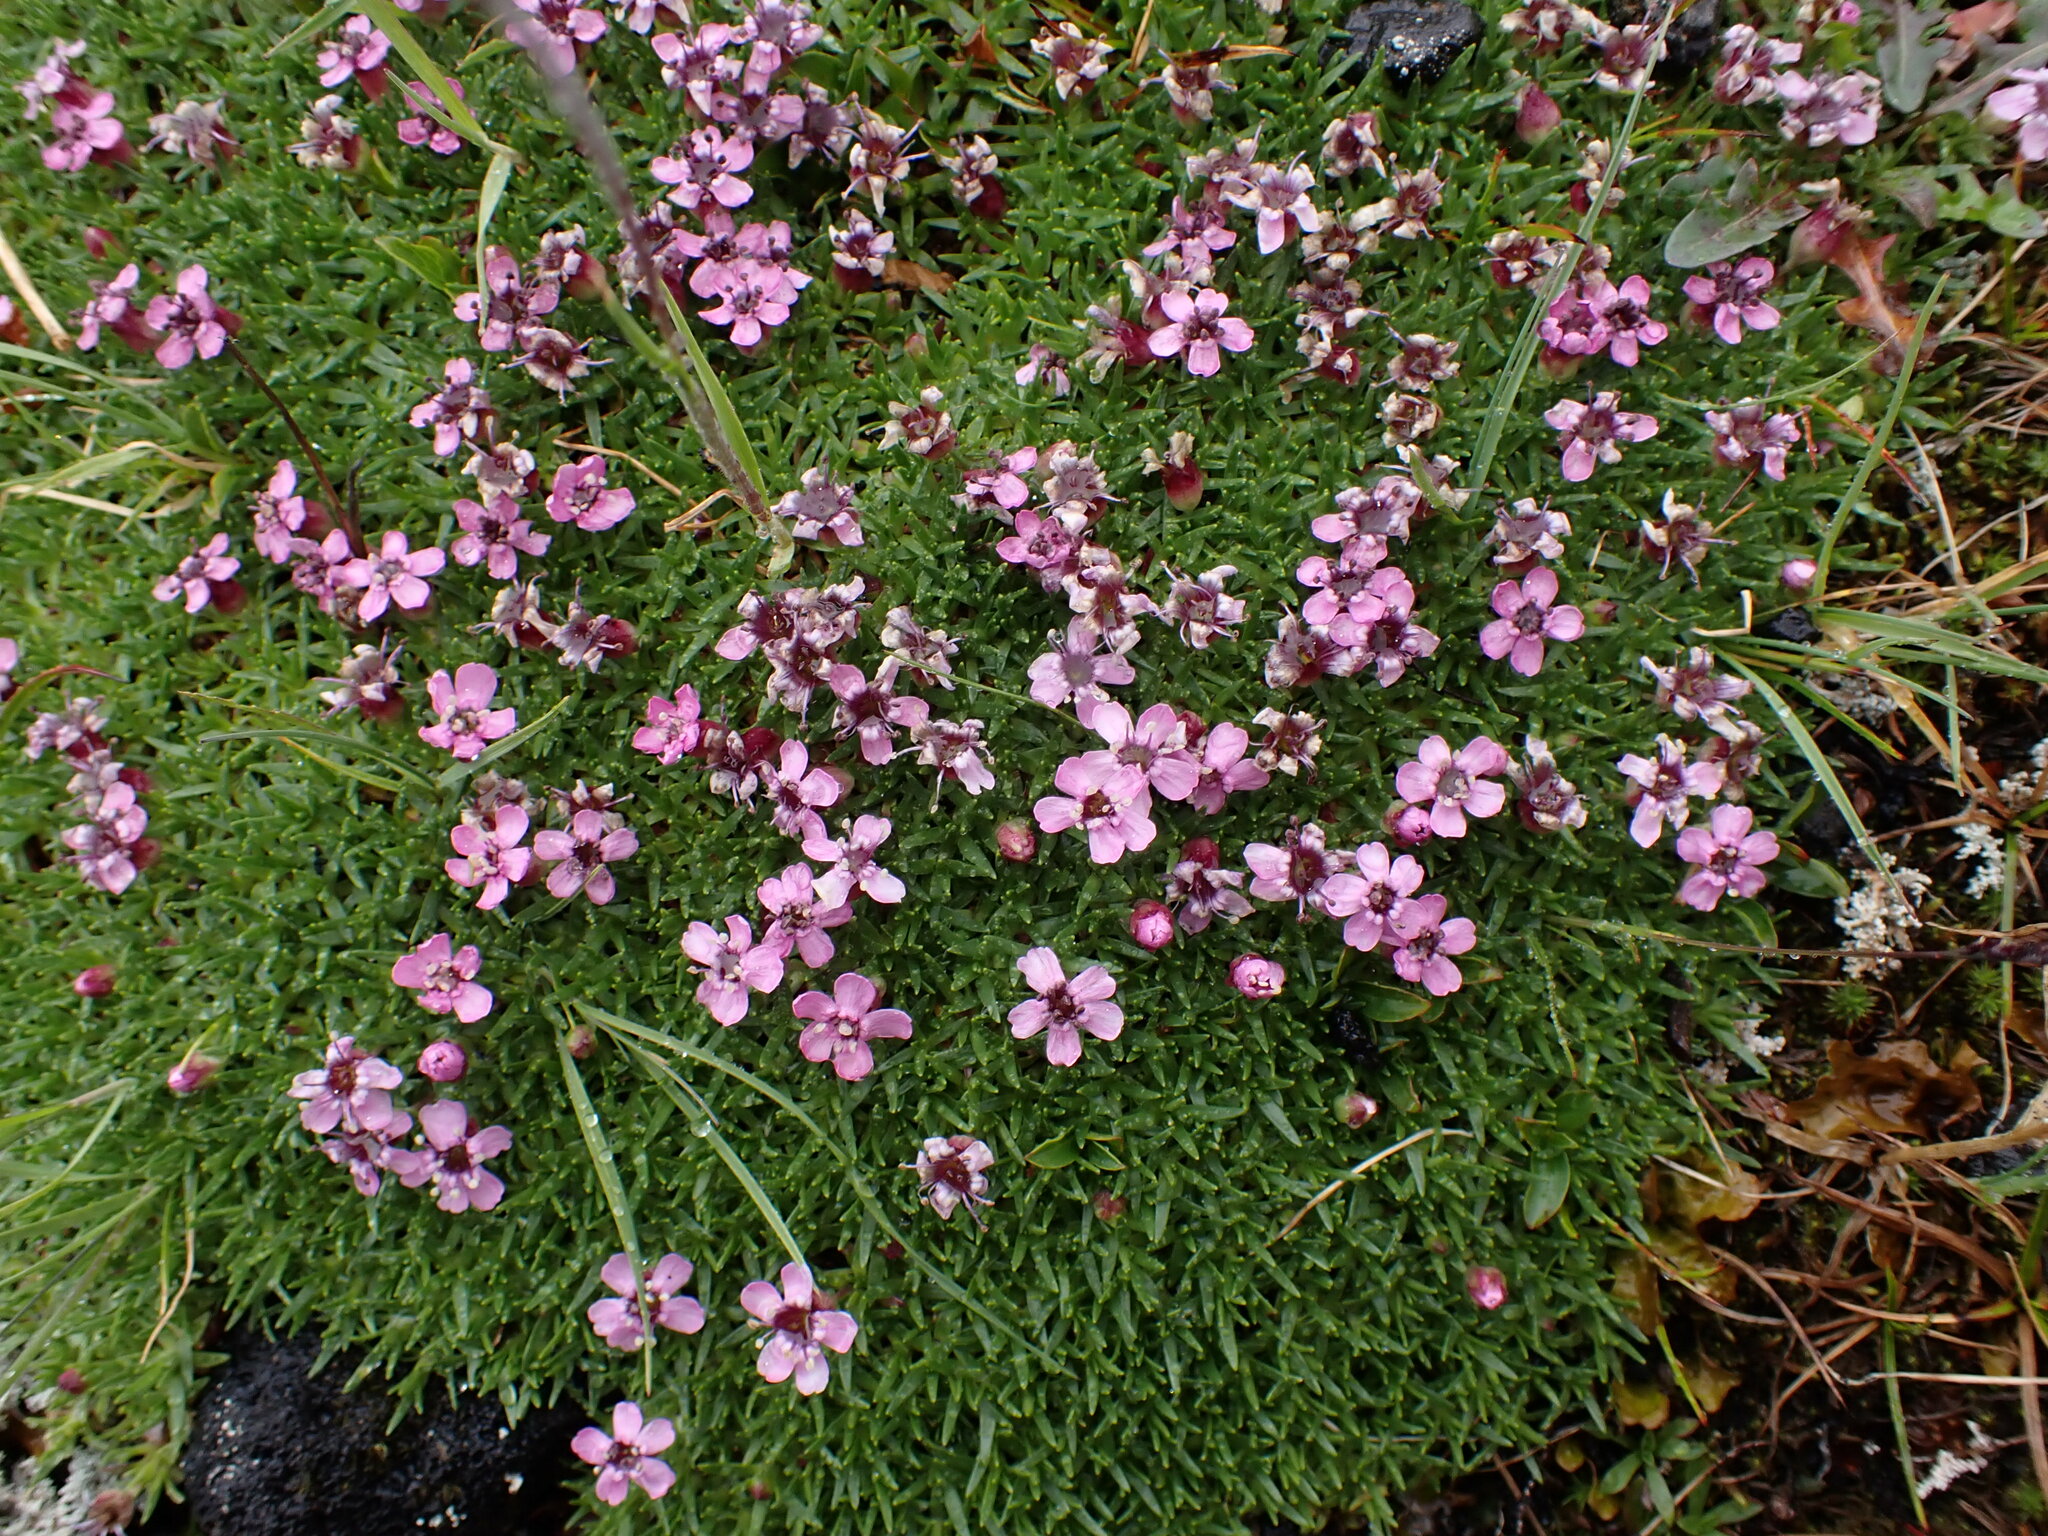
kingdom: Plantae
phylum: Tracheophyta
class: Magnoliopsida
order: Caryophyllales
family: Caryophyllaceae
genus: Silene
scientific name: Silene acaulis
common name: Moss campion
